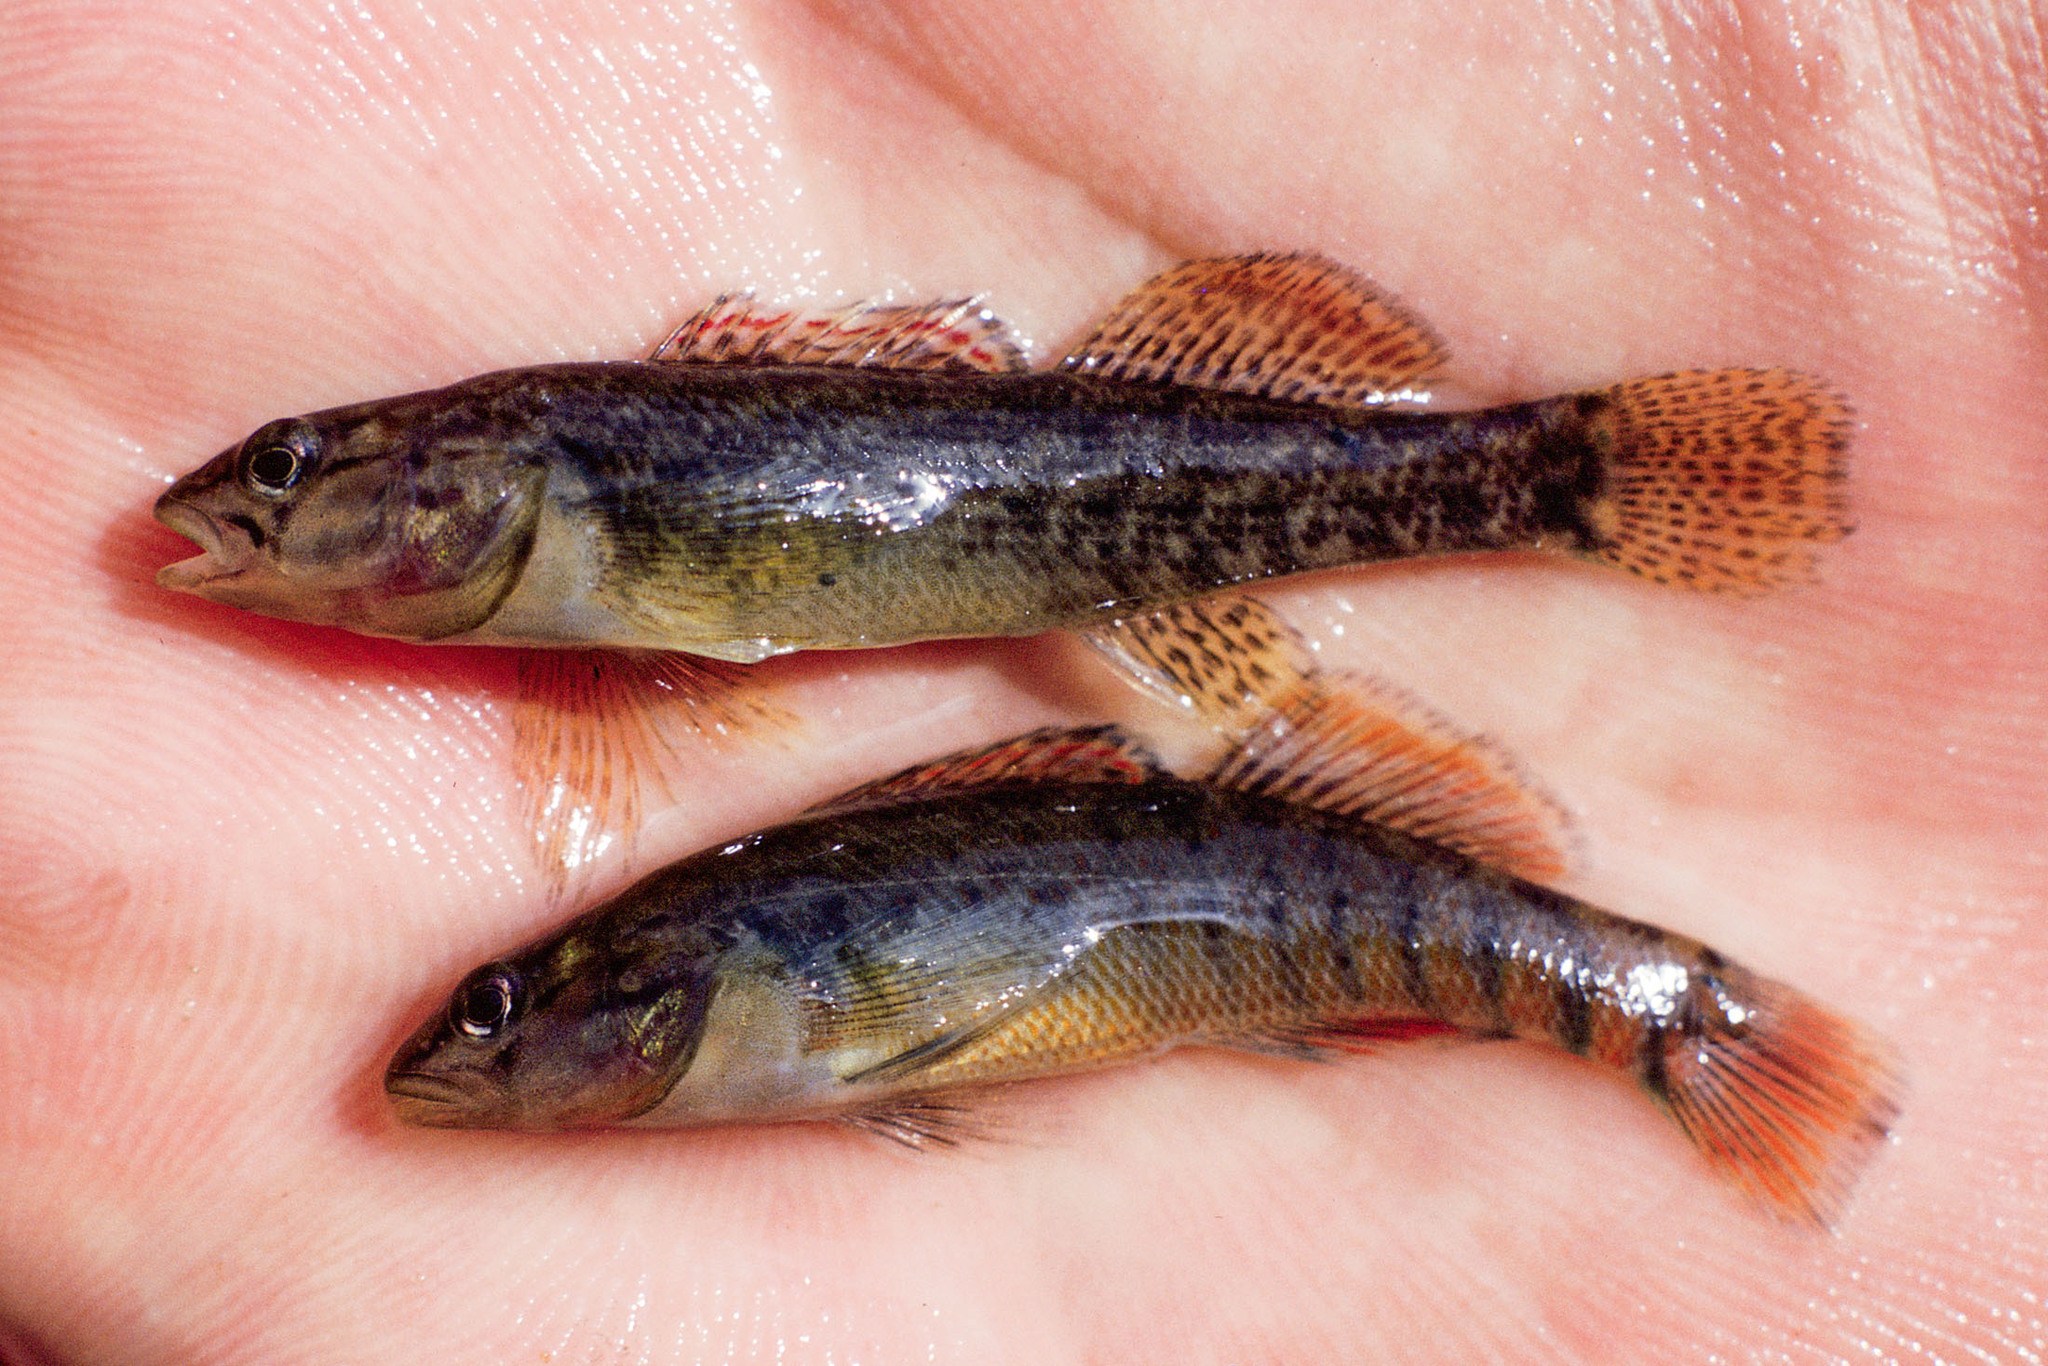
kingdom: Animalia
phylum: Chordata
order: Perciformes
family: Percidae
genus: Etheostoma
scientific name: Etheostoma caeruleum
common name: Rainbow darter
